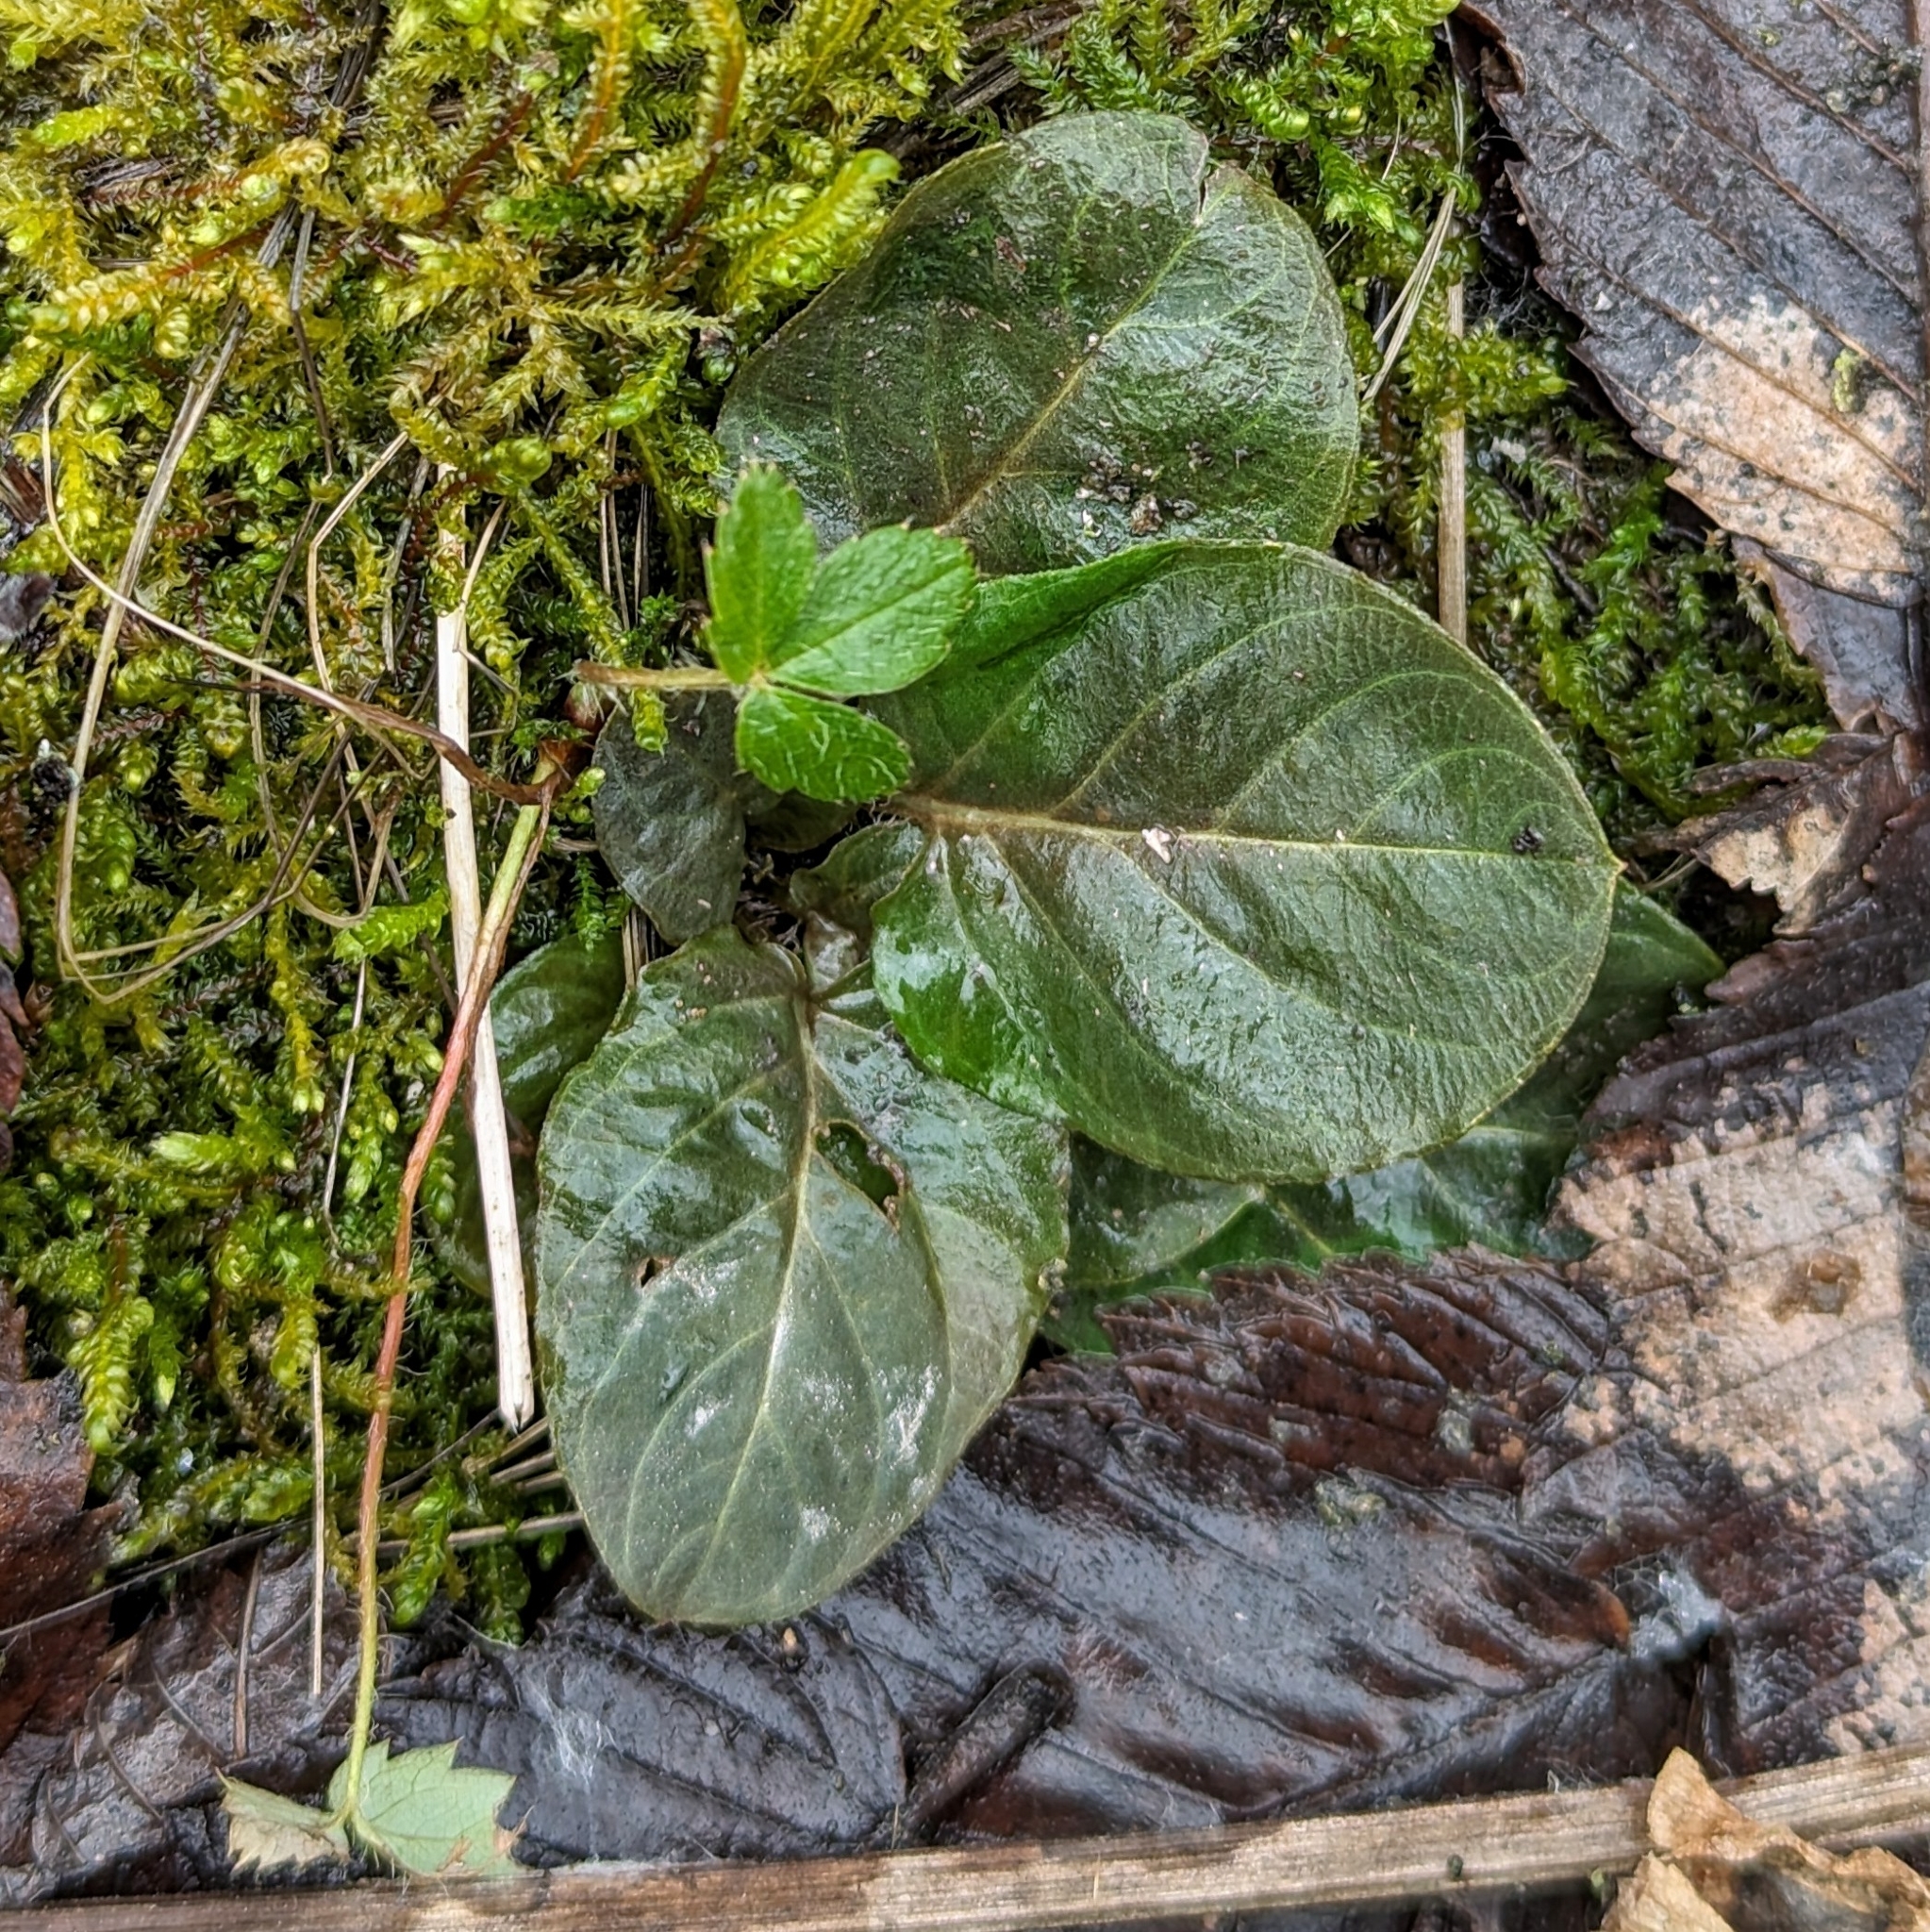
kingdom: Plantae
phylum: Tracheophyta
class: Magnoliopsida
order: Ericales
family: Primulaceae
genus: Lysimachia
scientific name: Lysimachia
